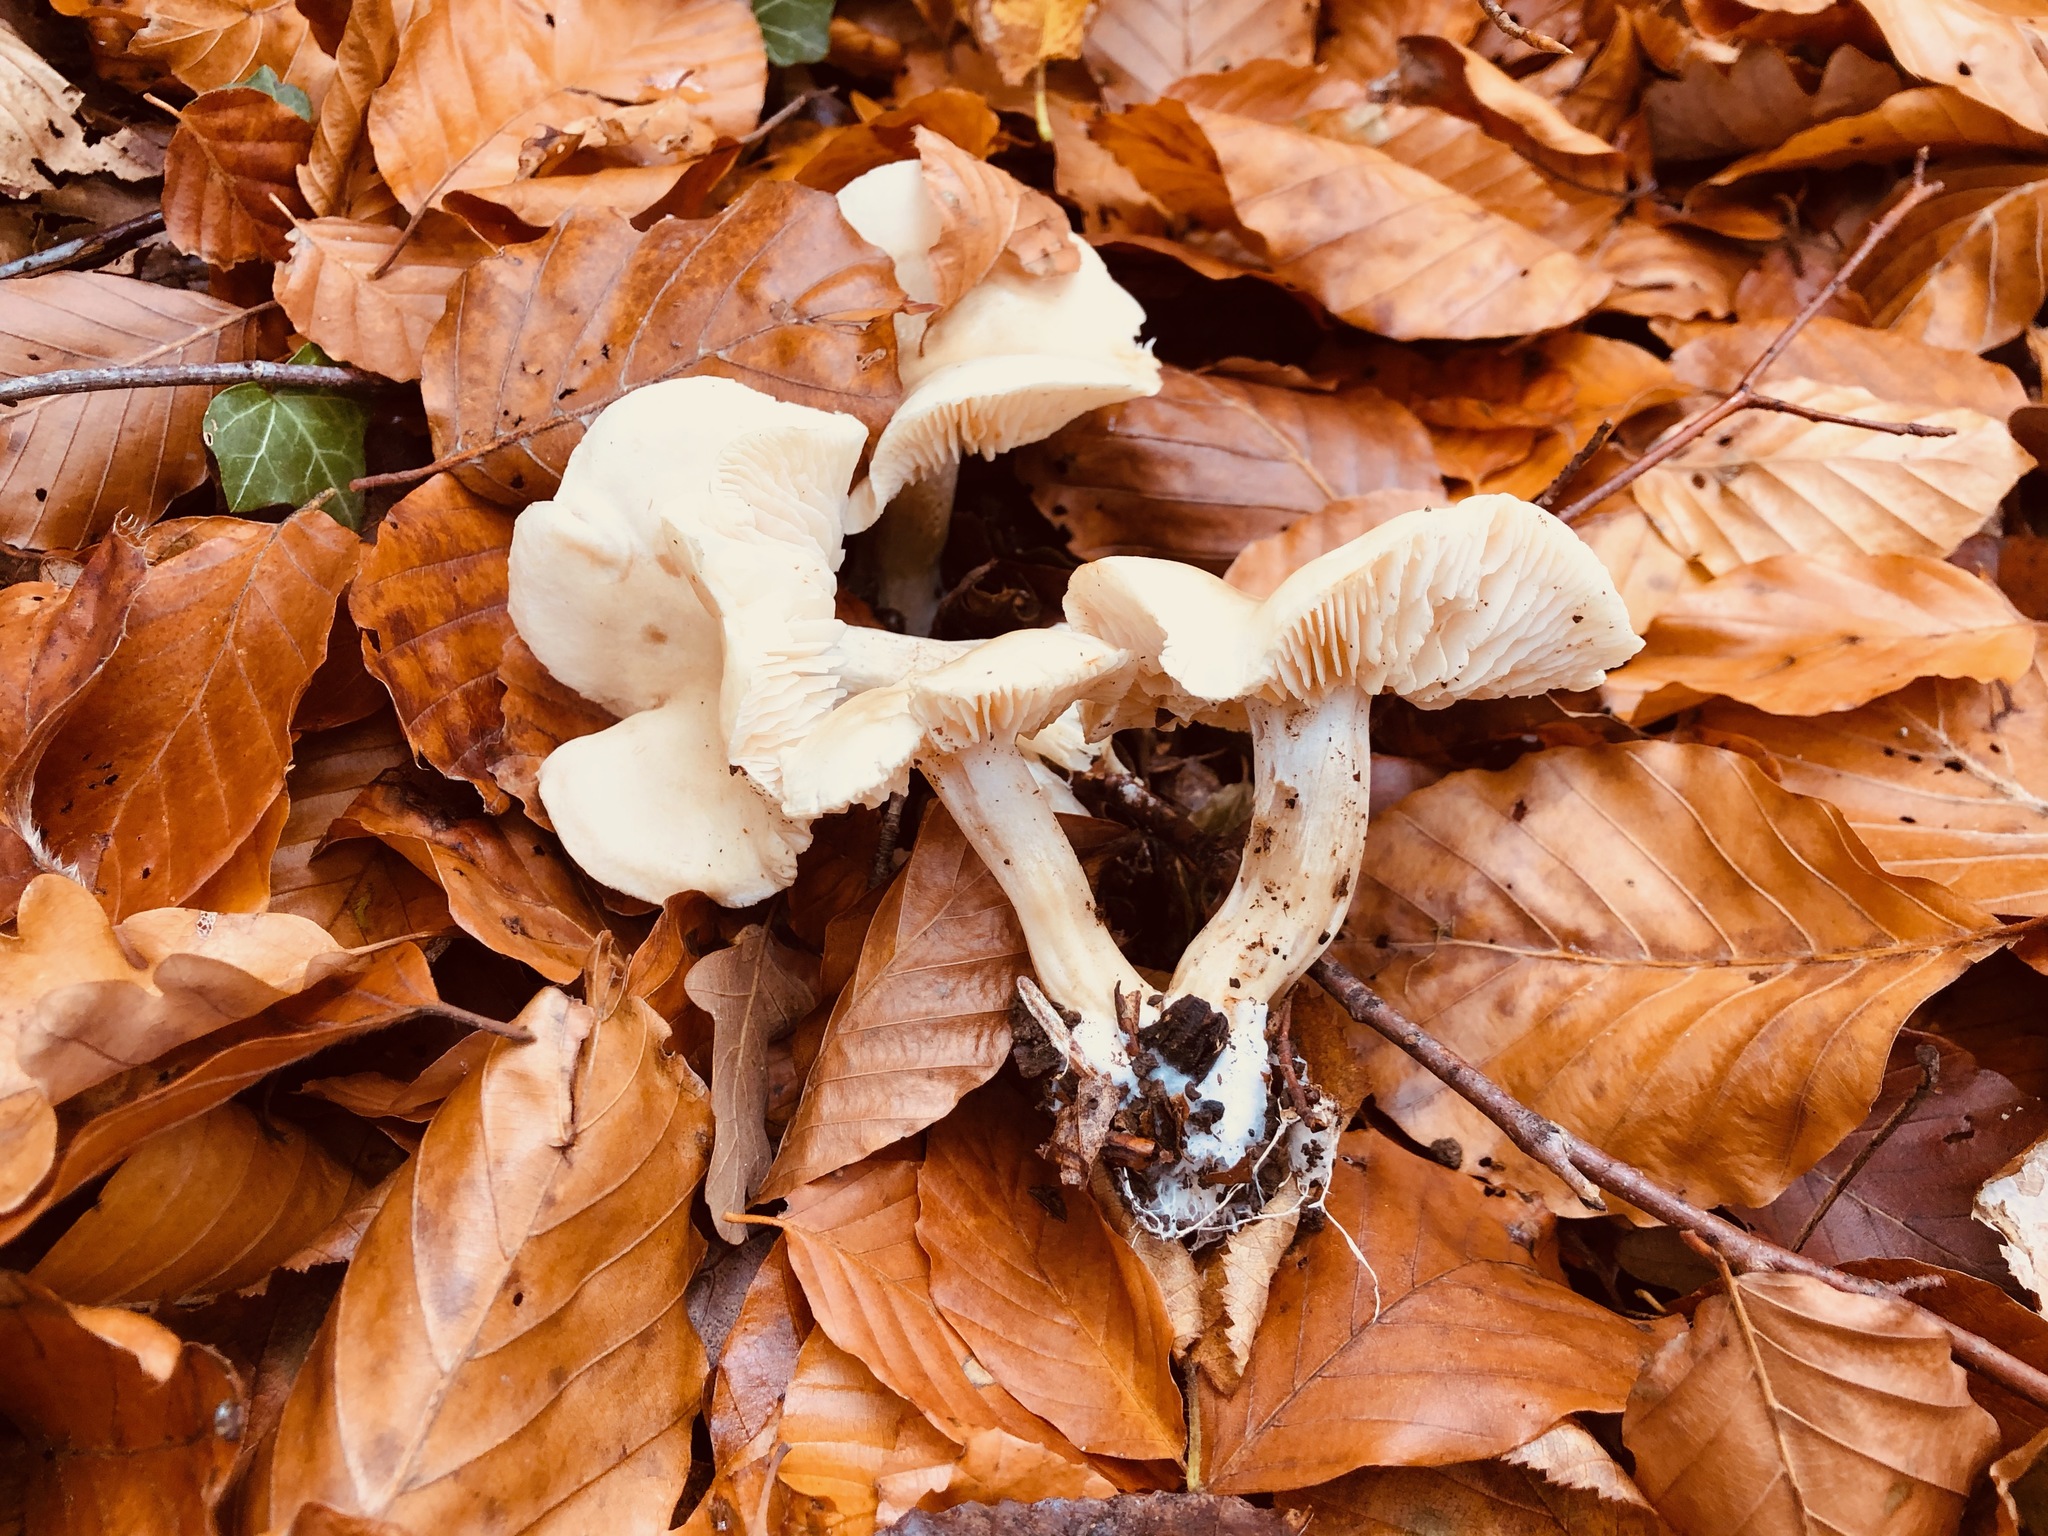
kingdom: Fungi
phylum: Basidiomycota
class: Agaricomycetes
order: Agaricales
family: Tricholomataceae
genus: Tricholoma
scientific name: Tricholoma lascivum
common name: Aromatic knight
